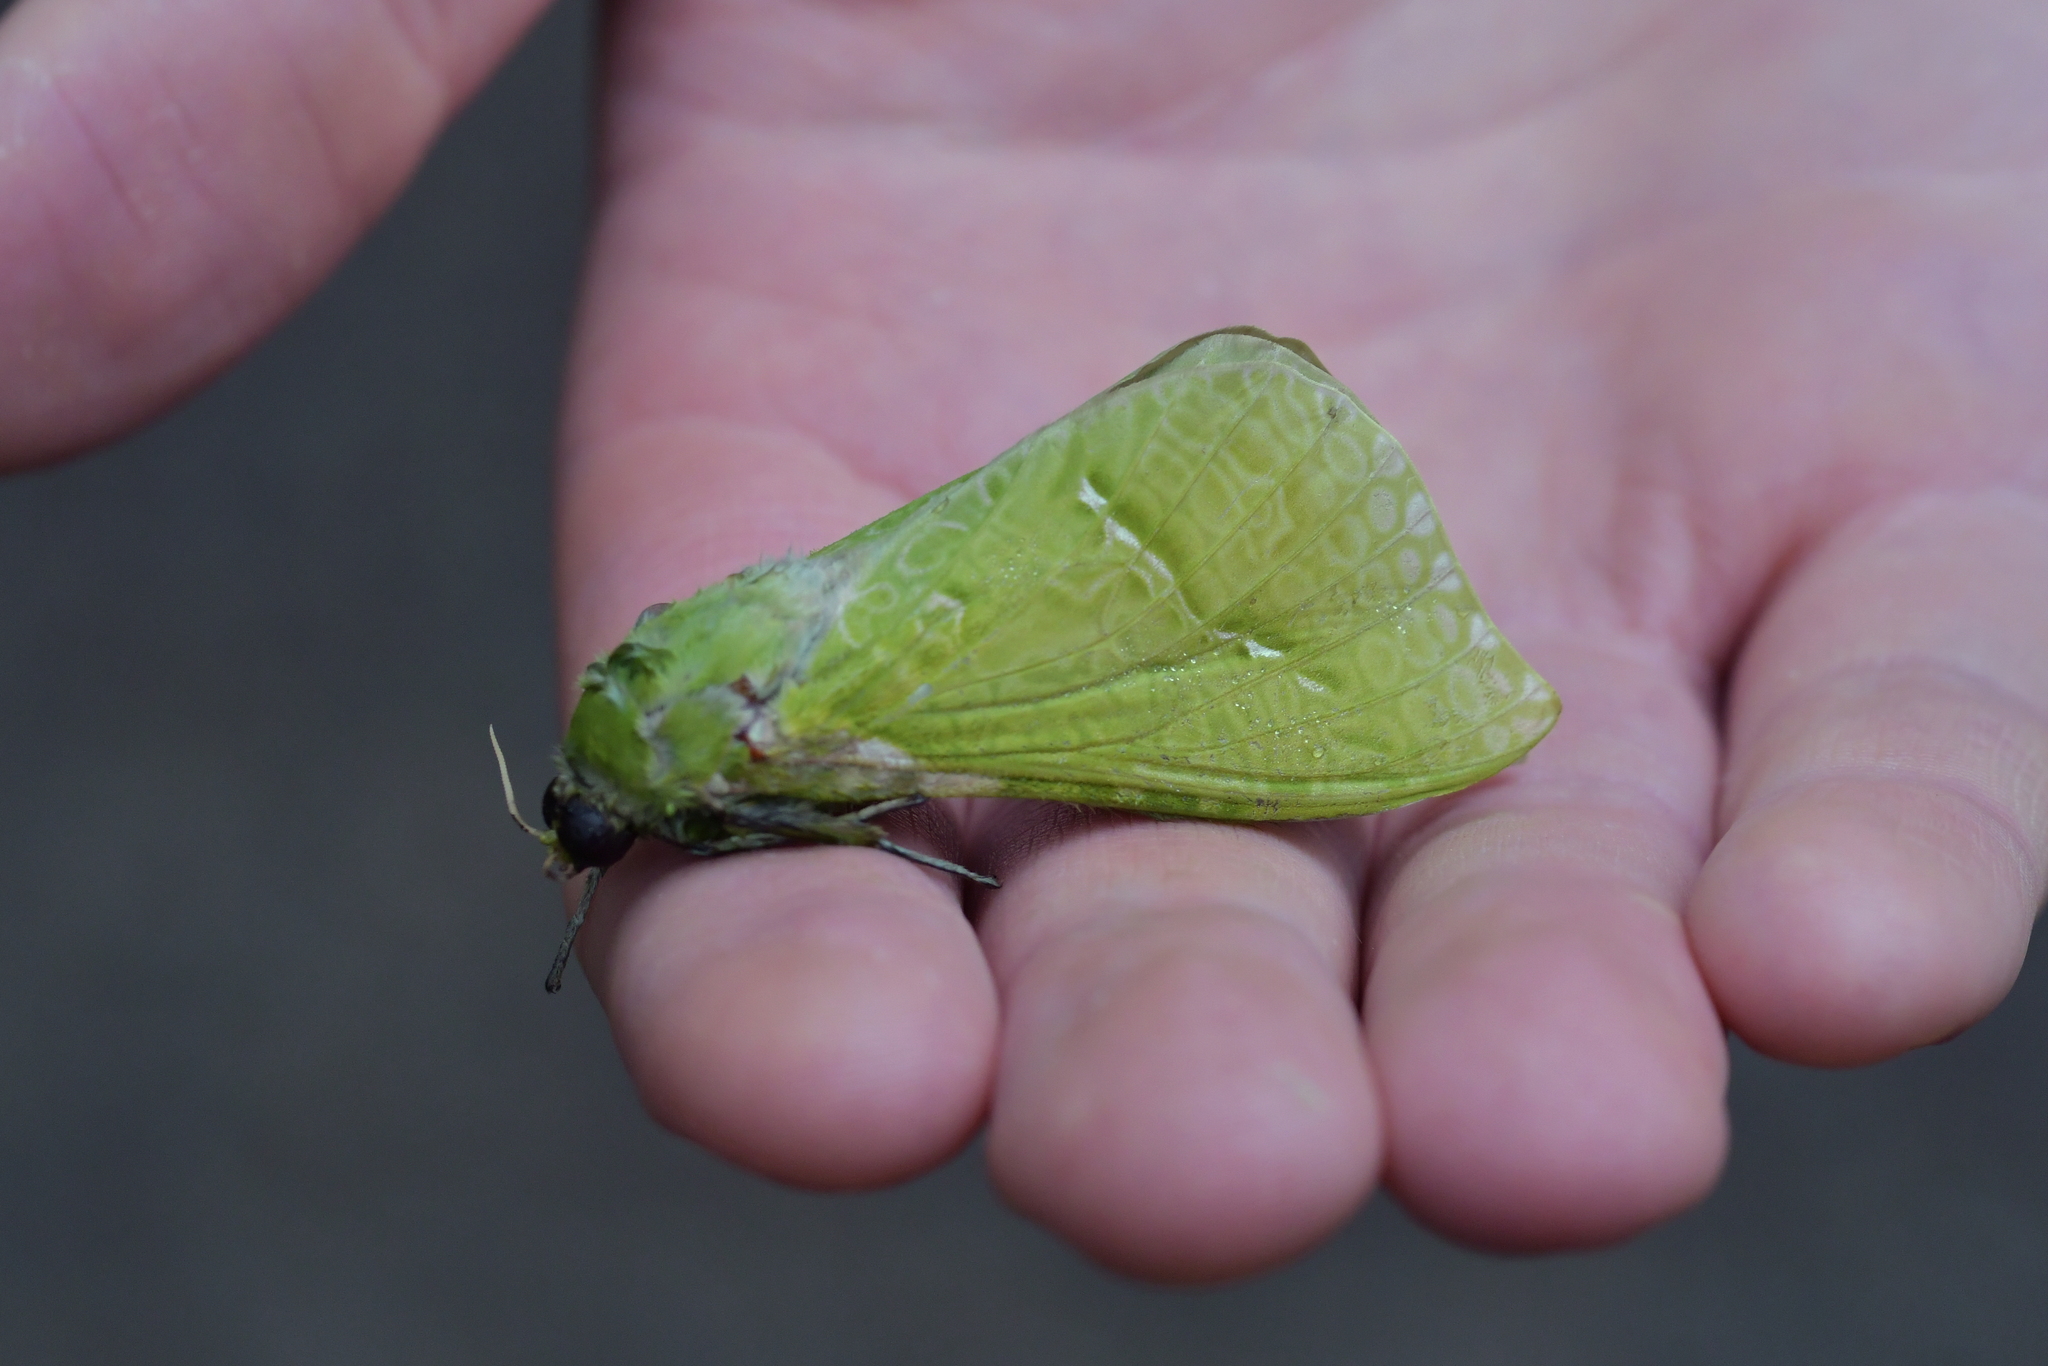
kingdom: Animalia
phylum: Arthropoda
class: Insecta
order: Lepidoptera
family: Hepialidae
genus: Aenetus
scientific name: Aenetus virescens
